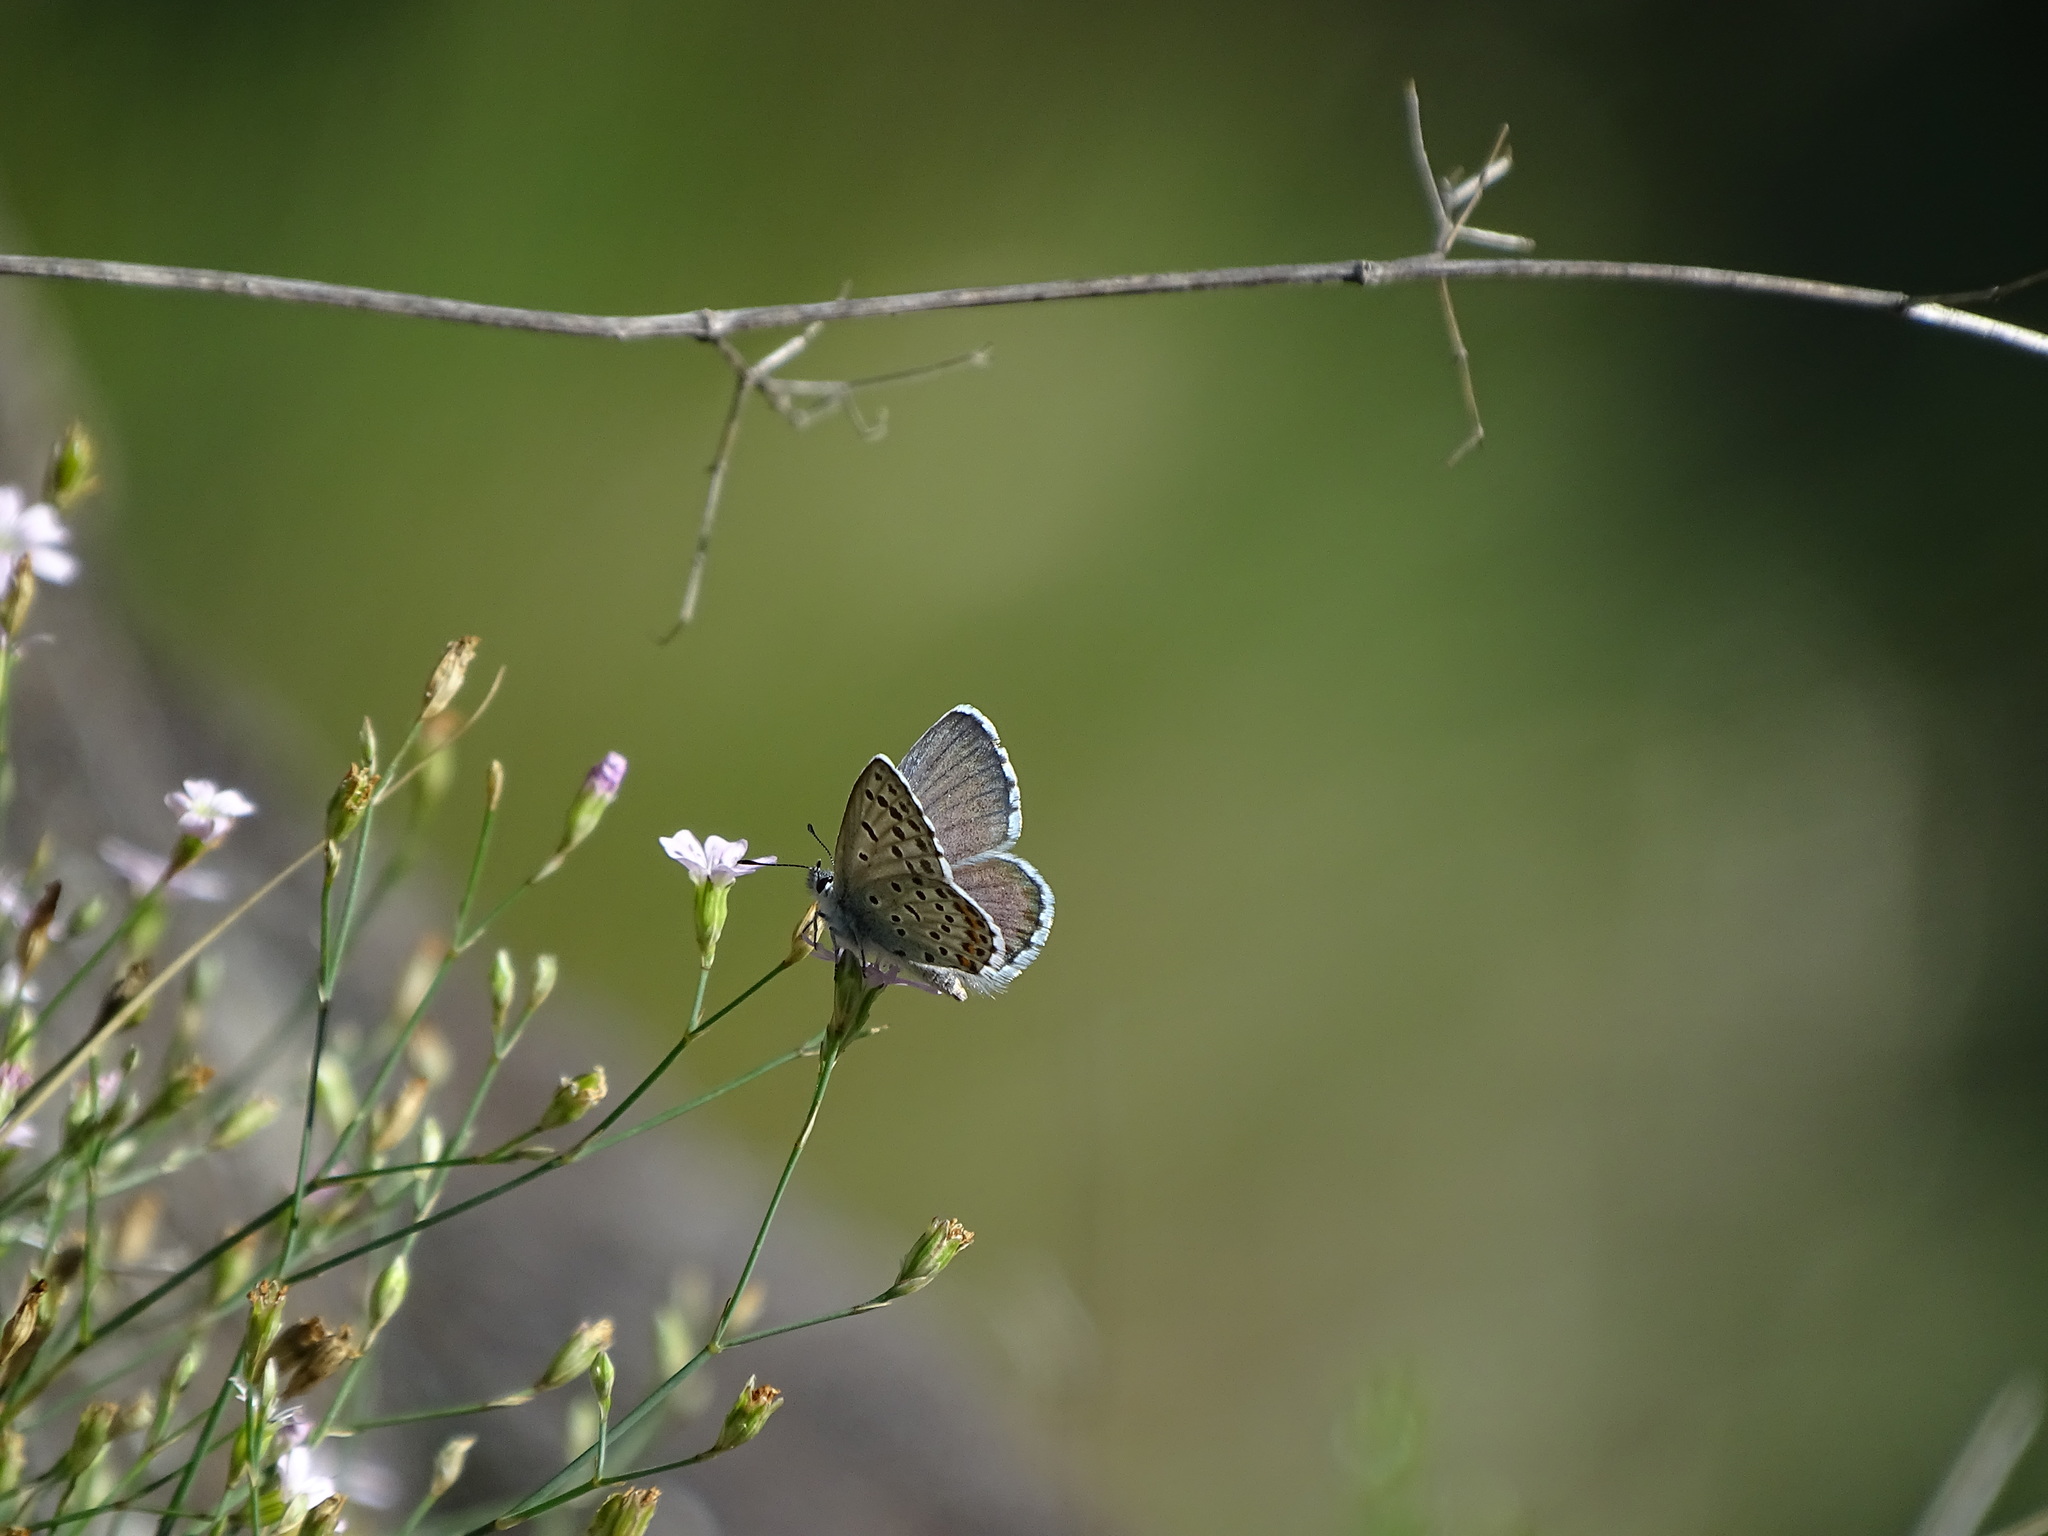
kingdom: Animalia
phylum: Arthropoda
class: Insecta
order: Lepidoptera
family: Lycaenidae
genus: Pseudophilotes
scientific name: Pseudophilotes baton
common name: Baton blue
